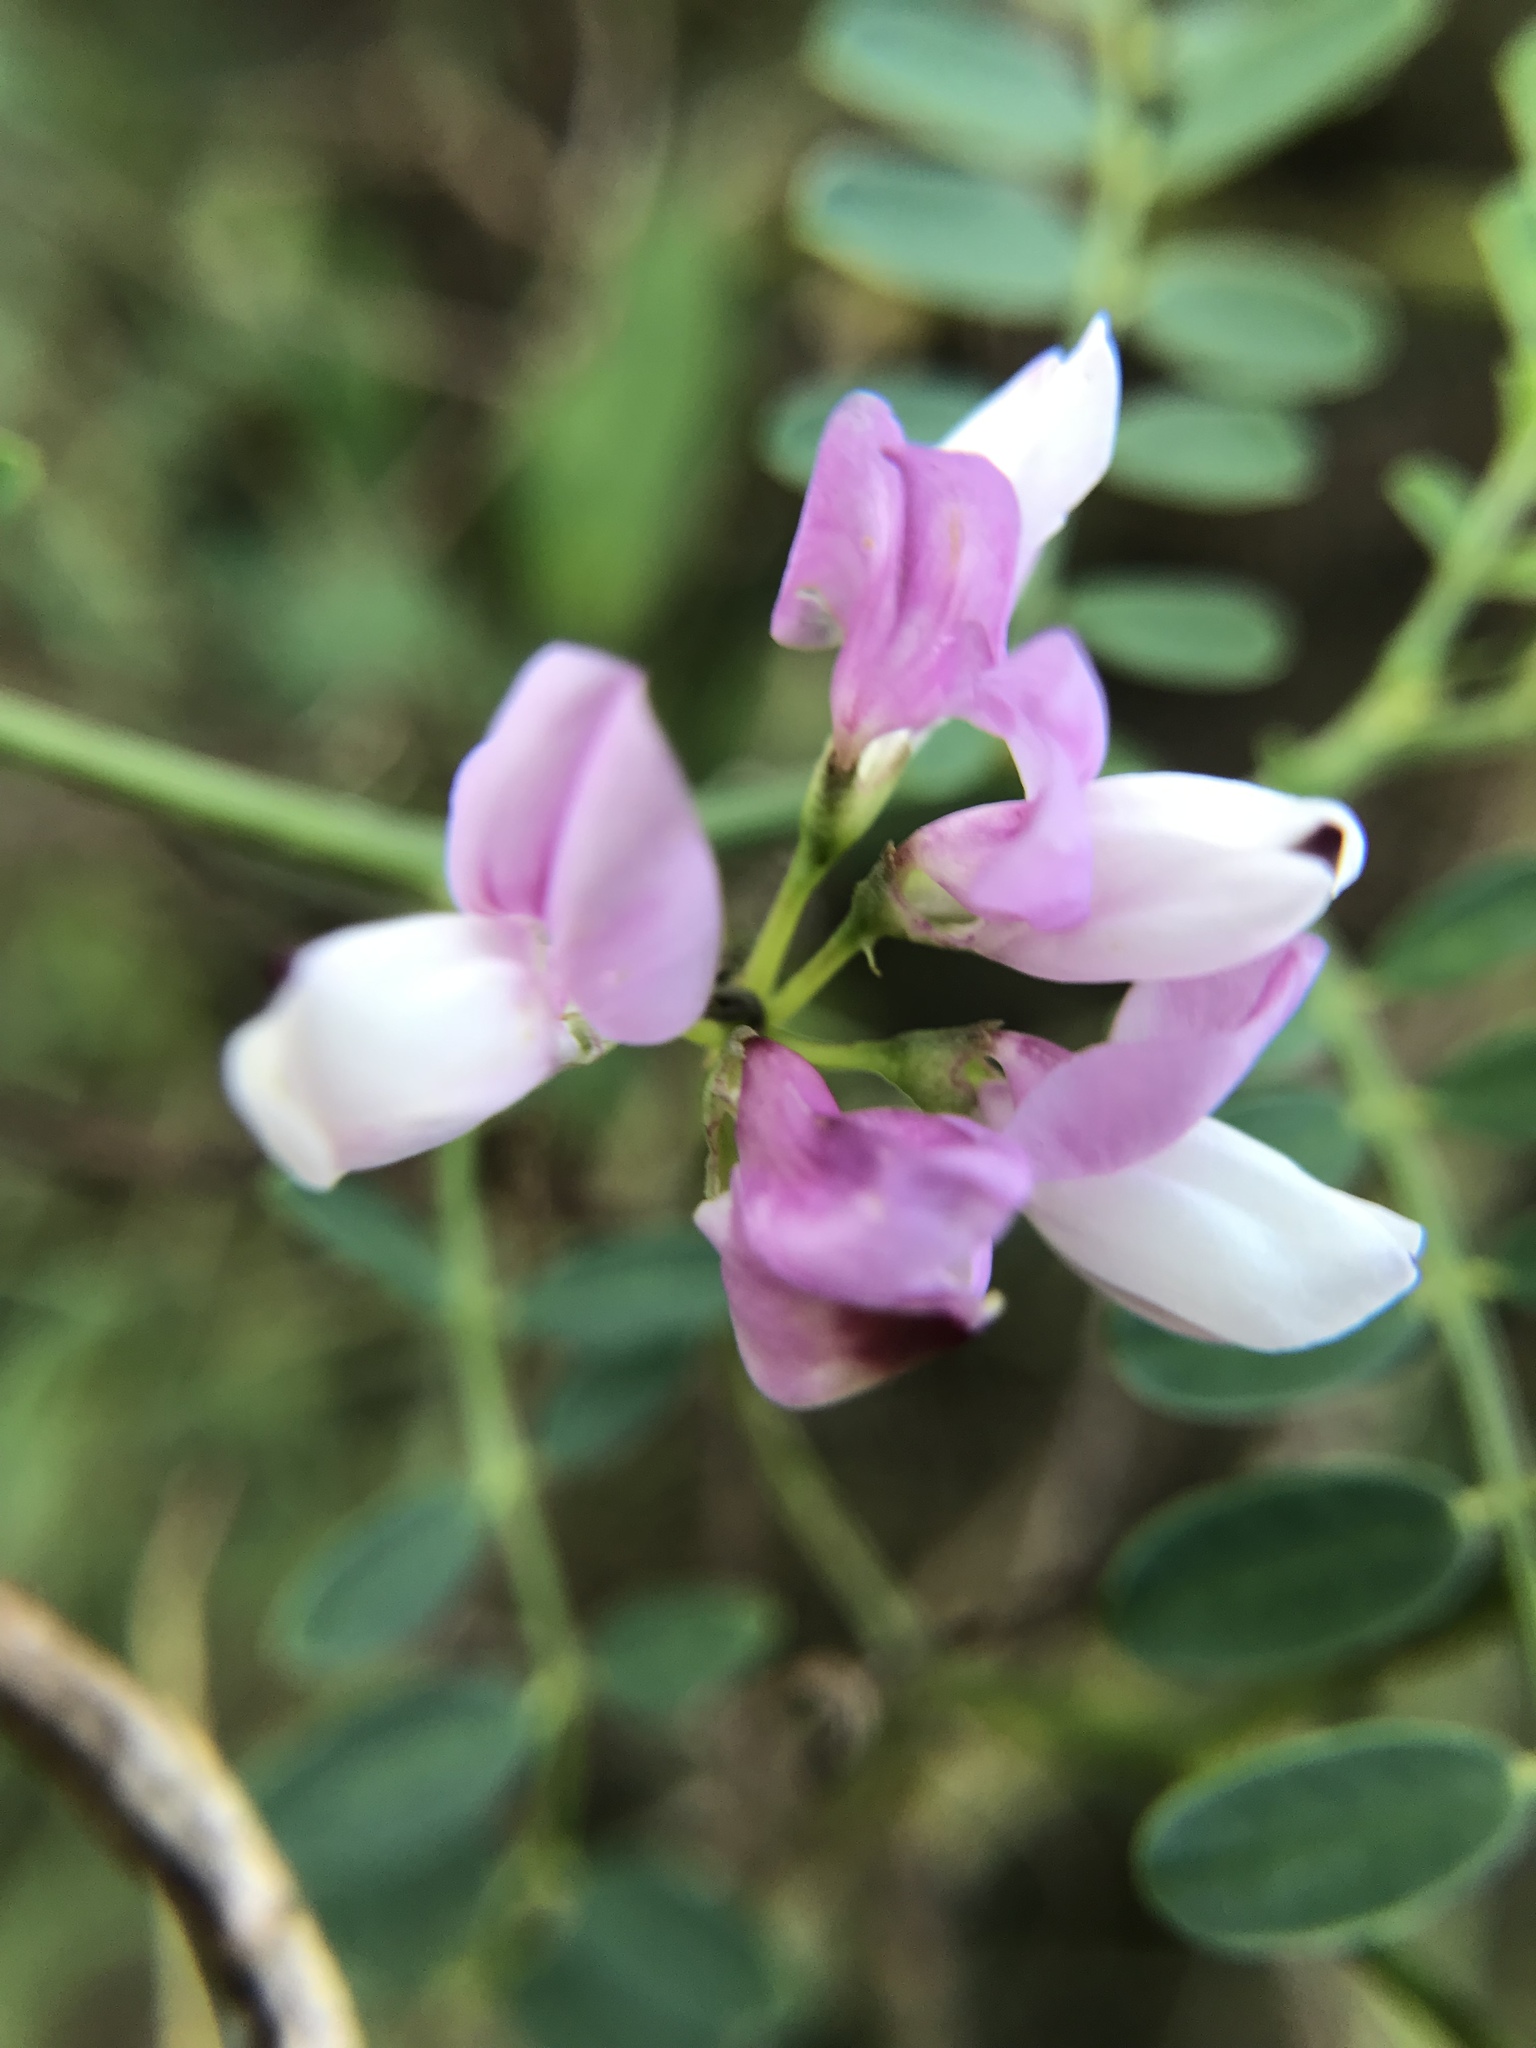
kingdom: Plantae
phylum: Tracheophyta
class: Magnoliopsida
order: Fabales
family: Fabaceae
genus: Coronilla
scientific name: Coronilla varia
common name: Crownvetch
